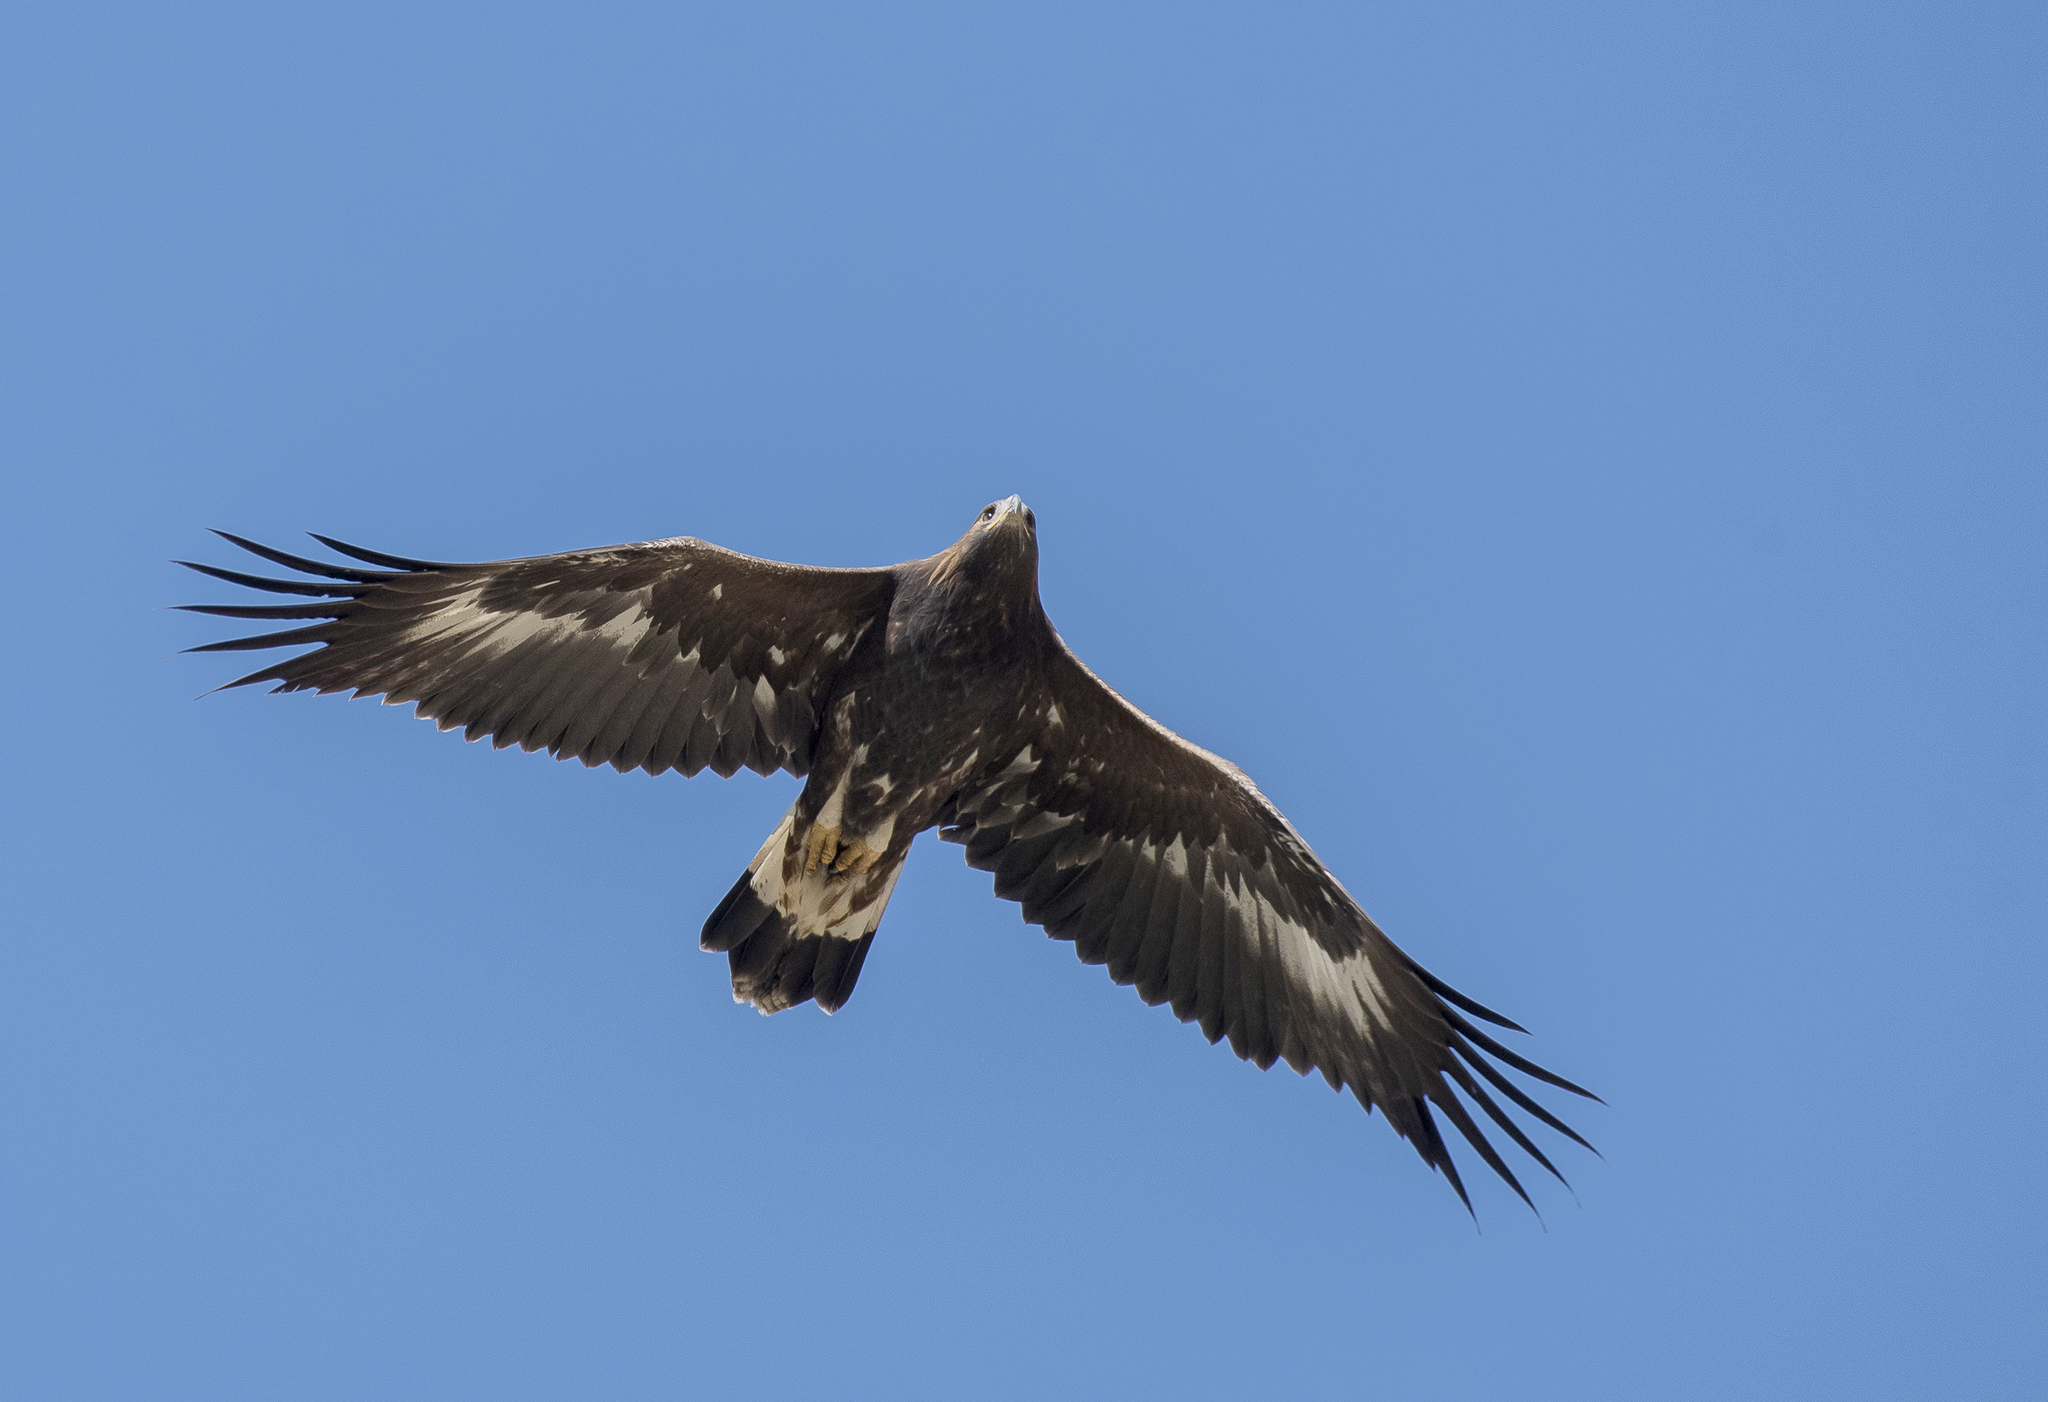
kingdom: Animalia
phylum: Chordata
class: Aves
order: Accipitriformes
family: Accipitridae
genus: Aquila
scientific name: Aquila chrysaetos
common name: Golden eagle
